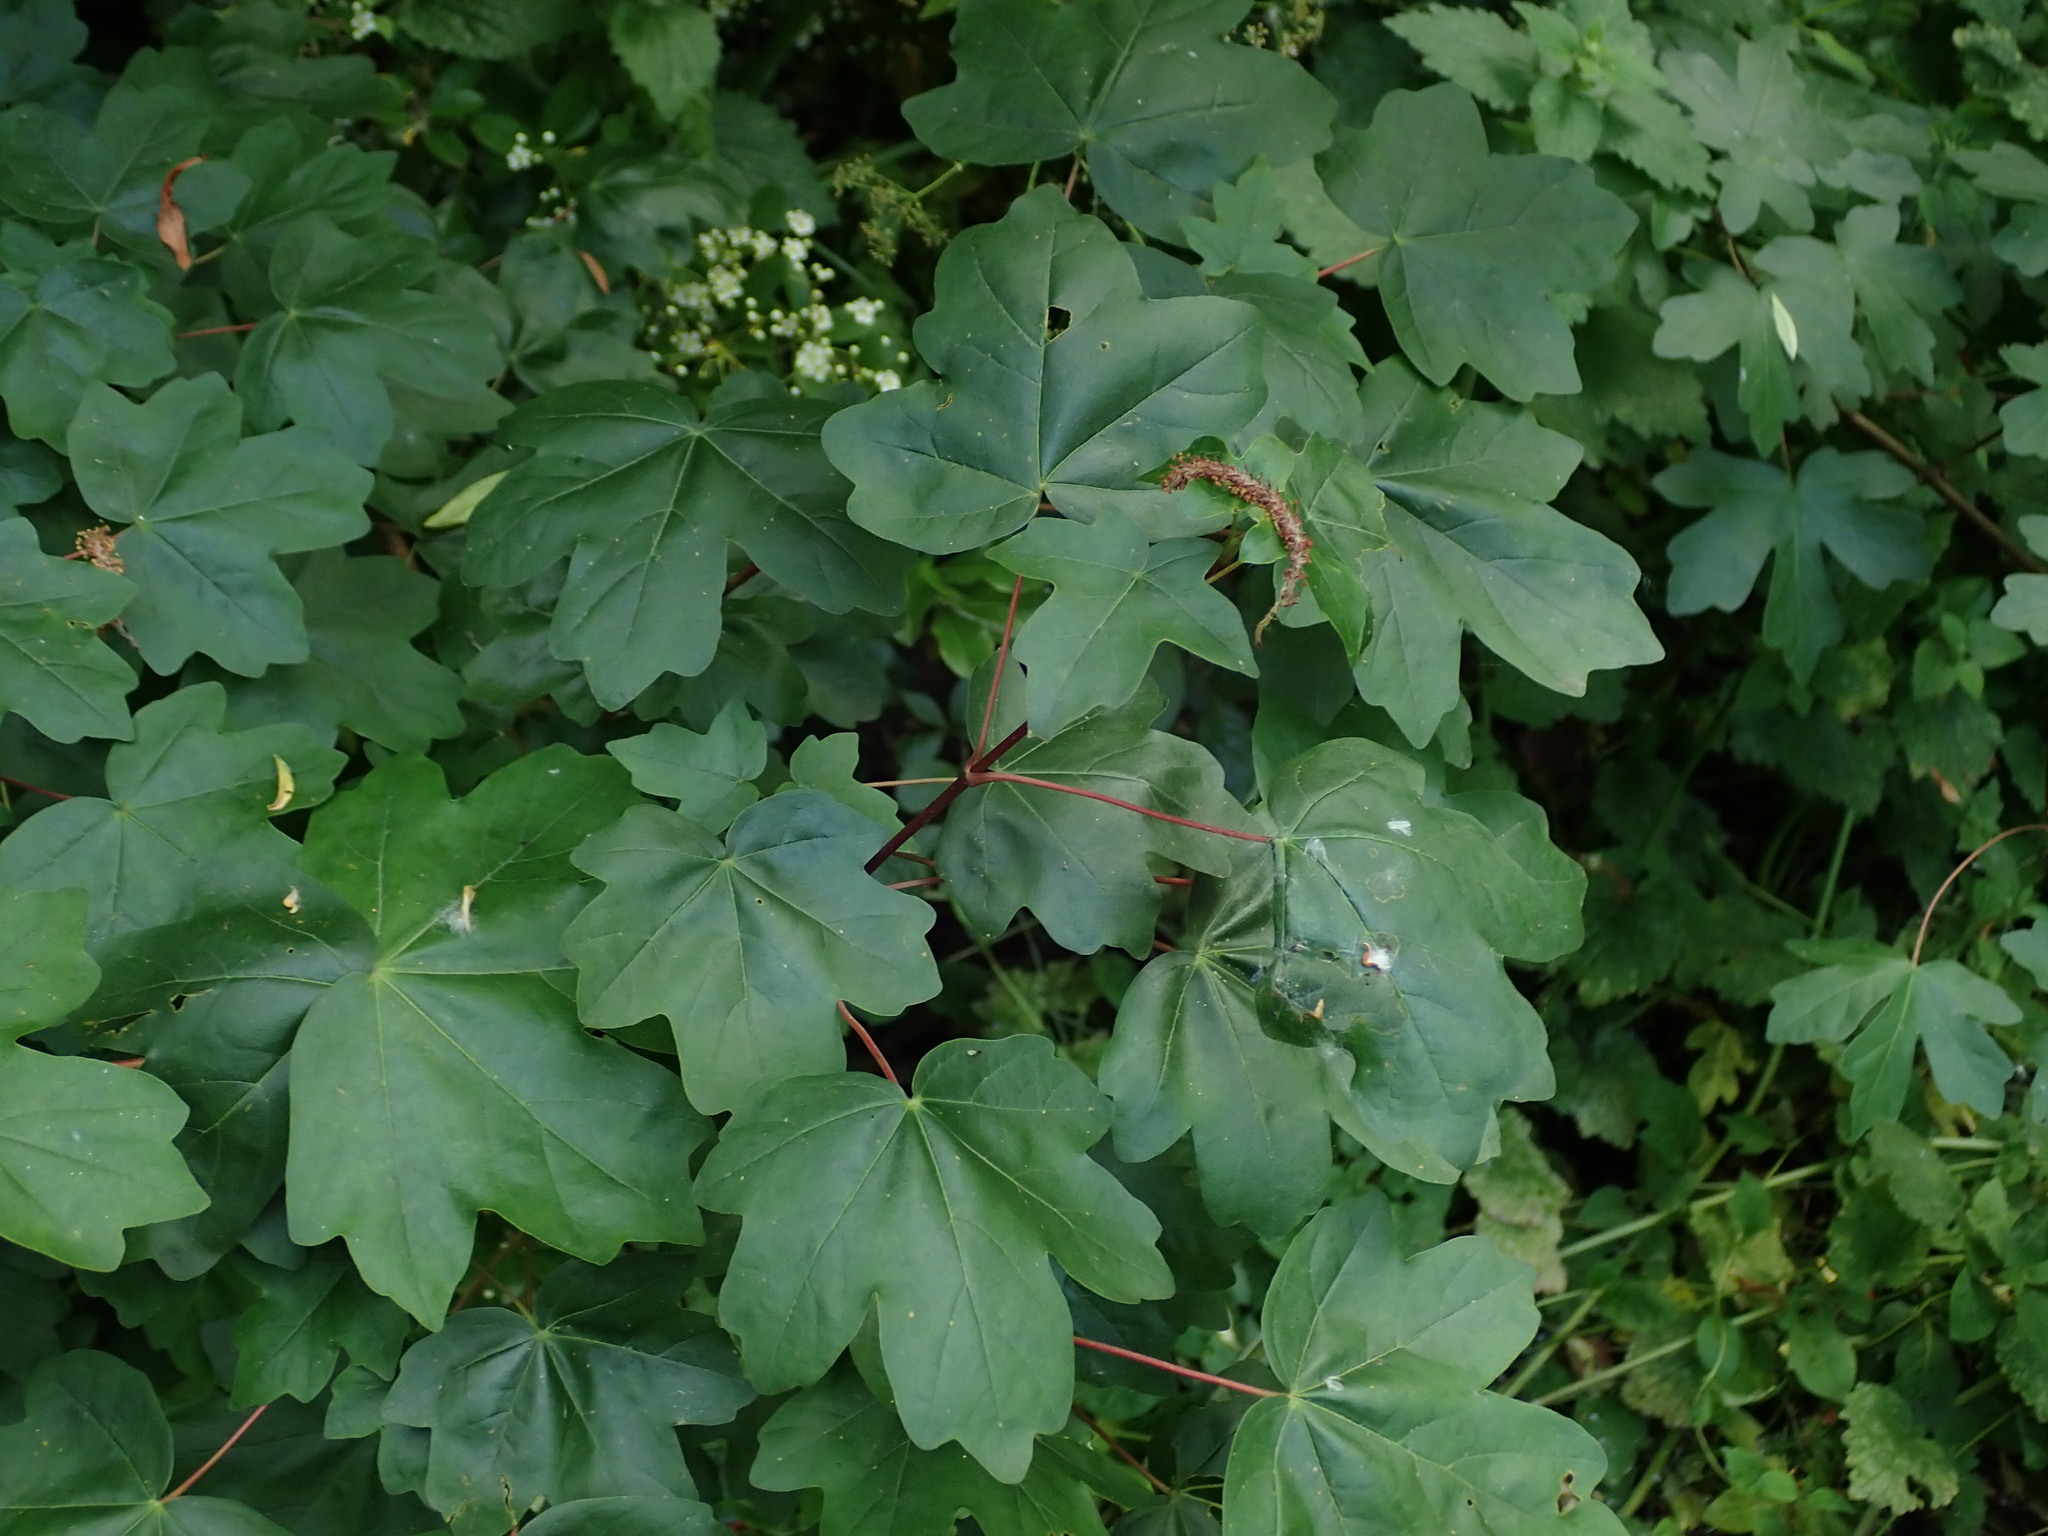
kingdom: Plantae
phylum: Tracheophyta
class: Magnoliopsida
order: Sapindales
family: Sapindaceae
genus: Acer
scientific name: Acer campestre
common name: Field maple
